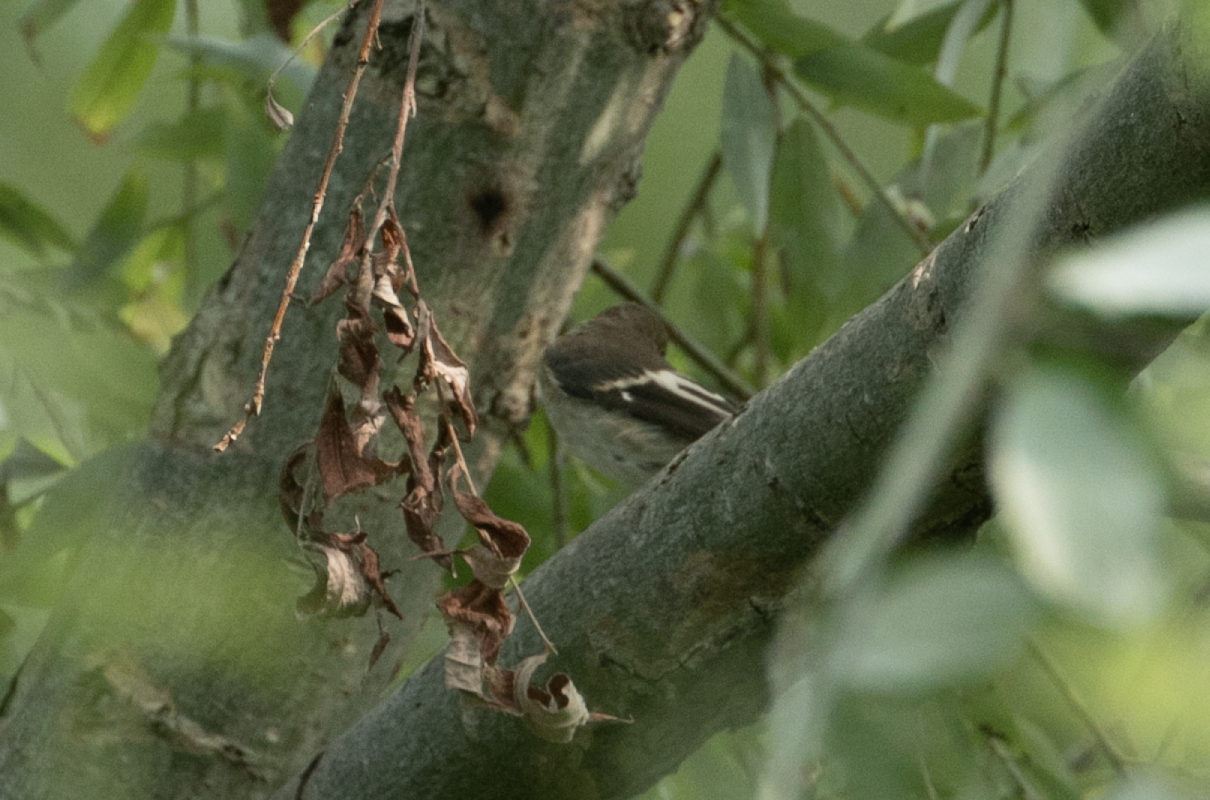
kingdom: Animalia
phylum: Chordata
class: Aves
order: Passeriformes
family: Muscicapidae
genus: Ficedula
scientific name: Ficedula hypoleuca
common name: European pied flycatcher
